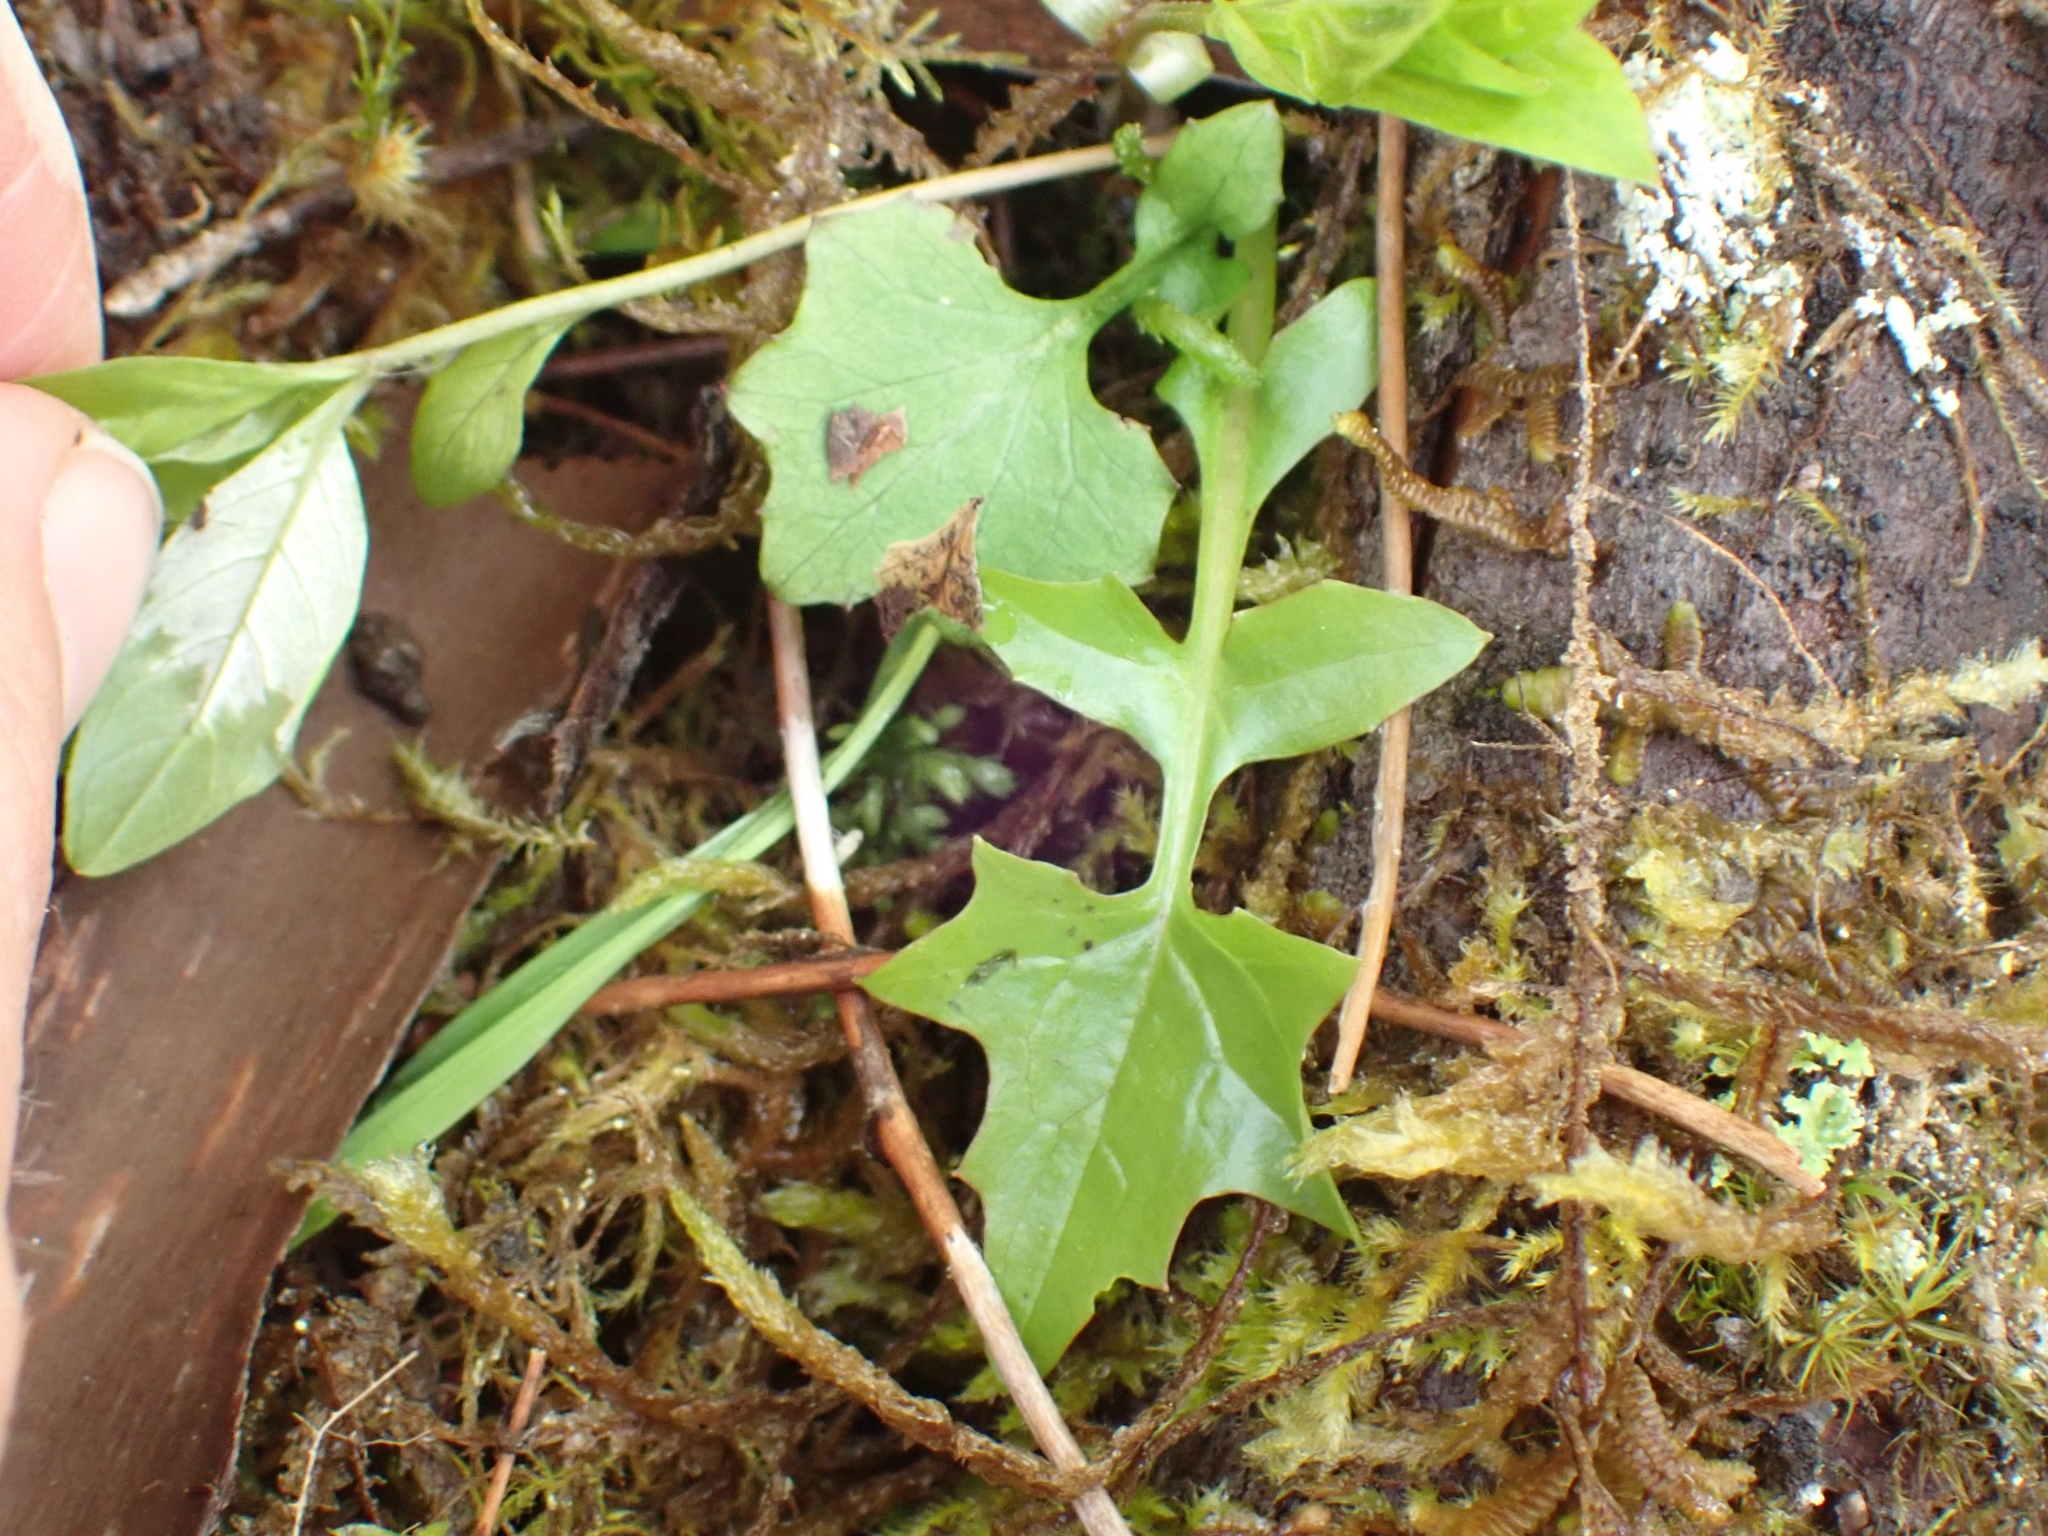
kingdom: Plantae
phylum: Tracheophyta
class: Magnoliopsida
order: Asterales
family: Asteraceae
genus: Mycelis
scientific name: Mycelis muralis
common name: Wall lettuce
